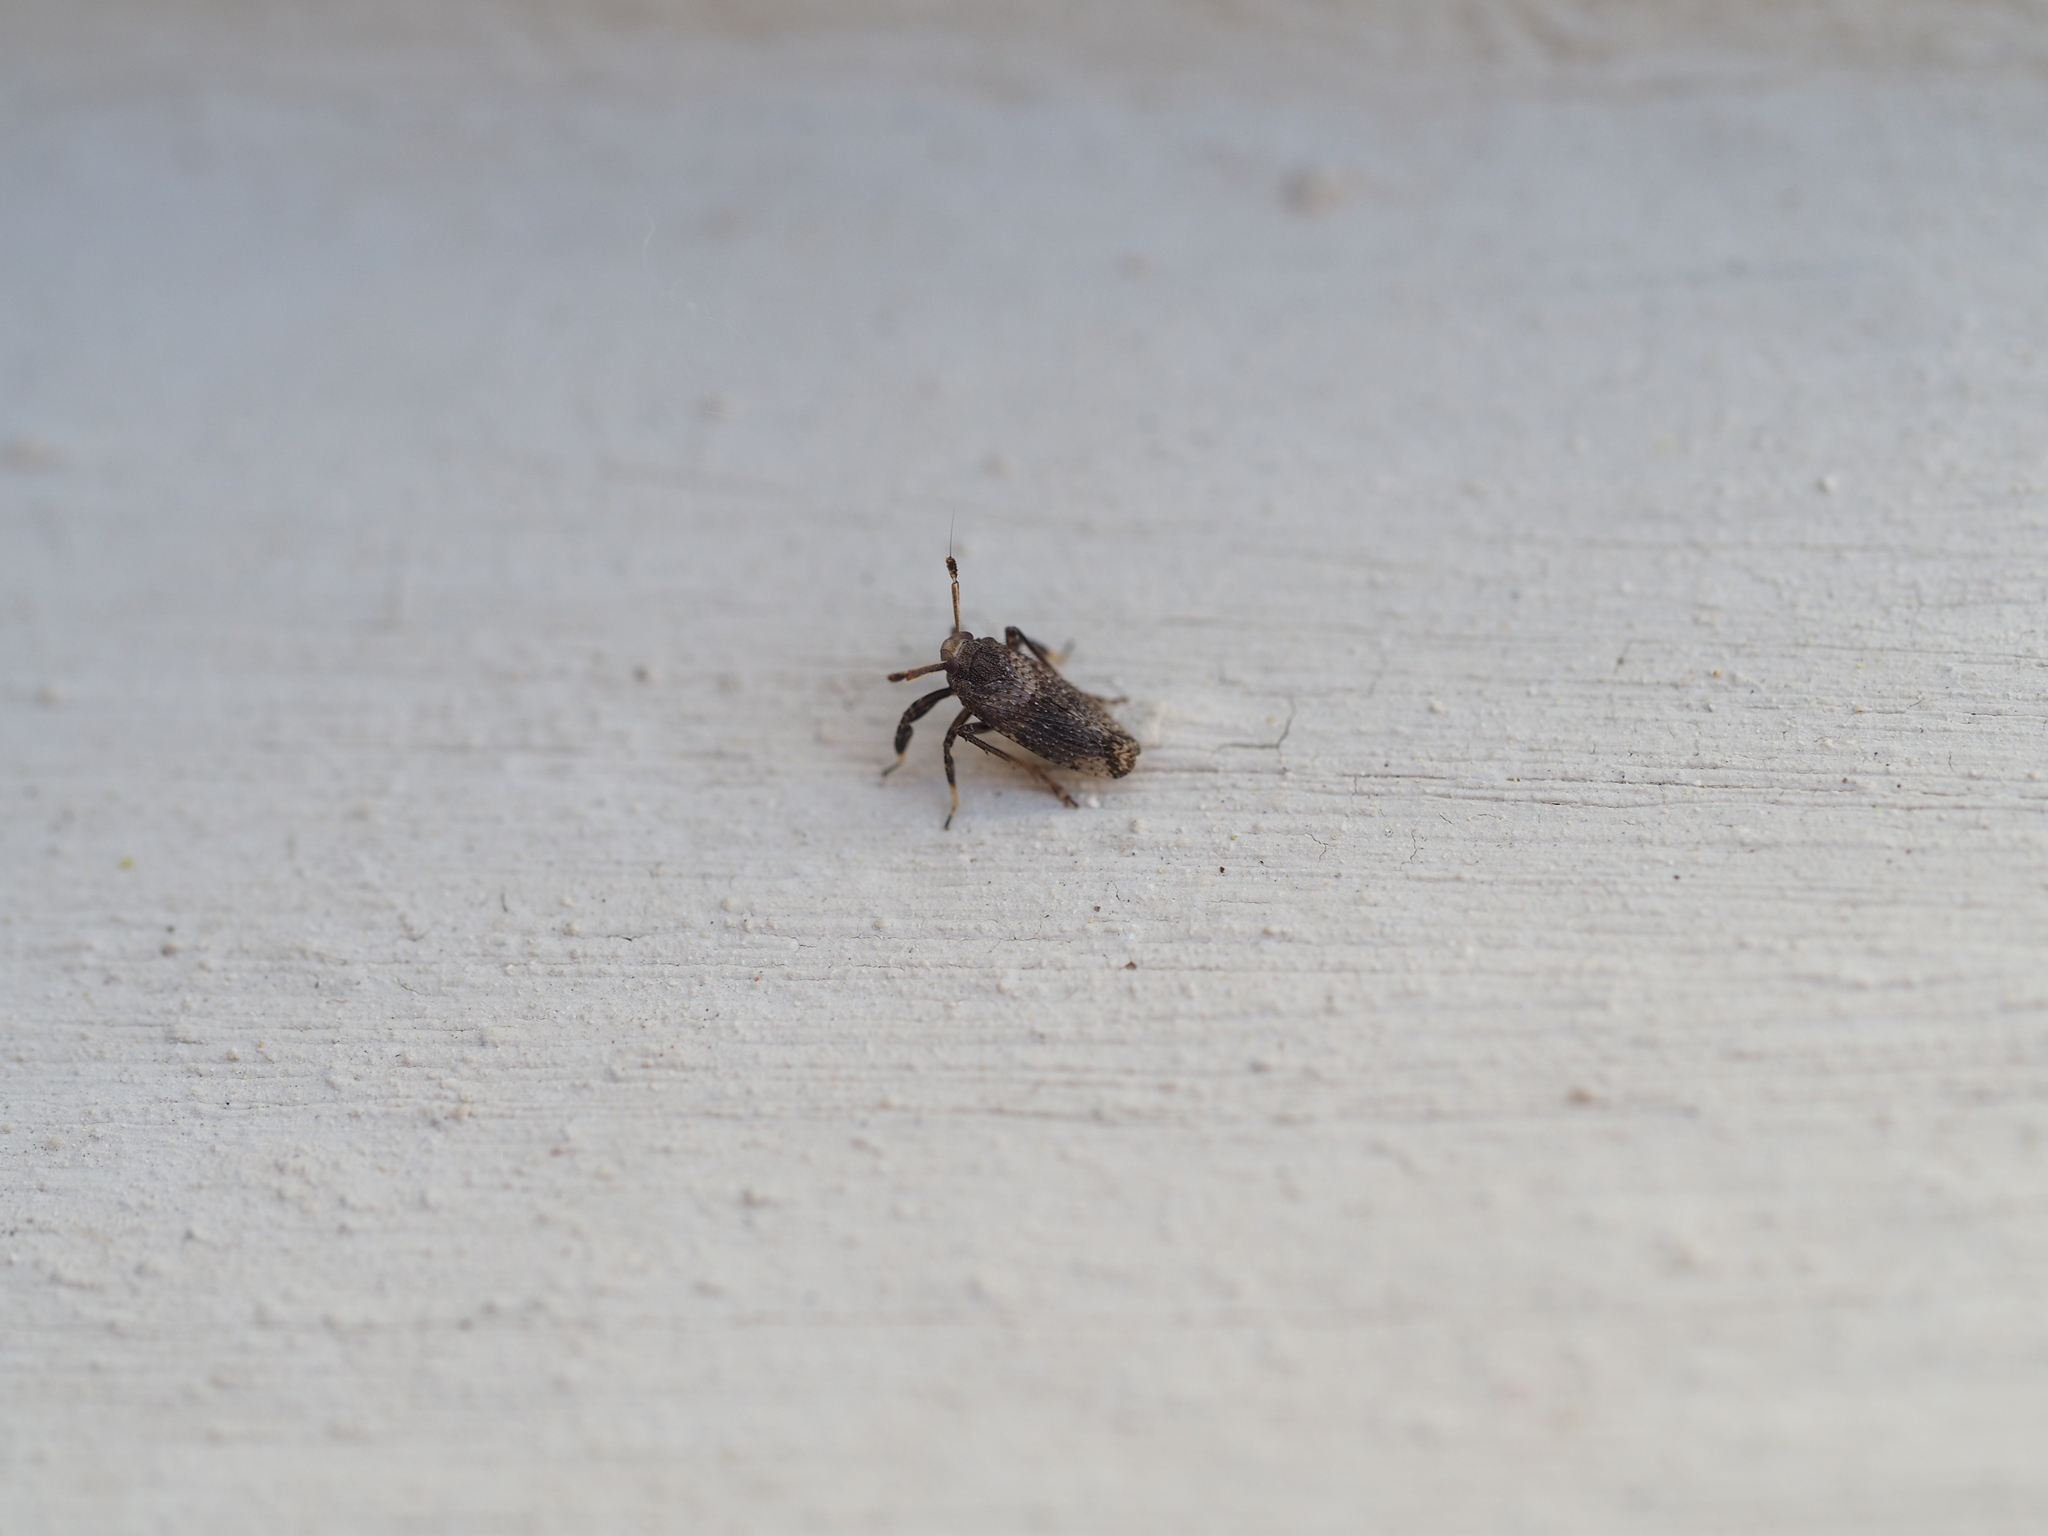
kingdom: Animalia
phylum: Arthropoda
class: Insecta
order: Hemiptera
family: Delphacidae
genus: Asiraca
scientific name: Asiraca clavicornis
